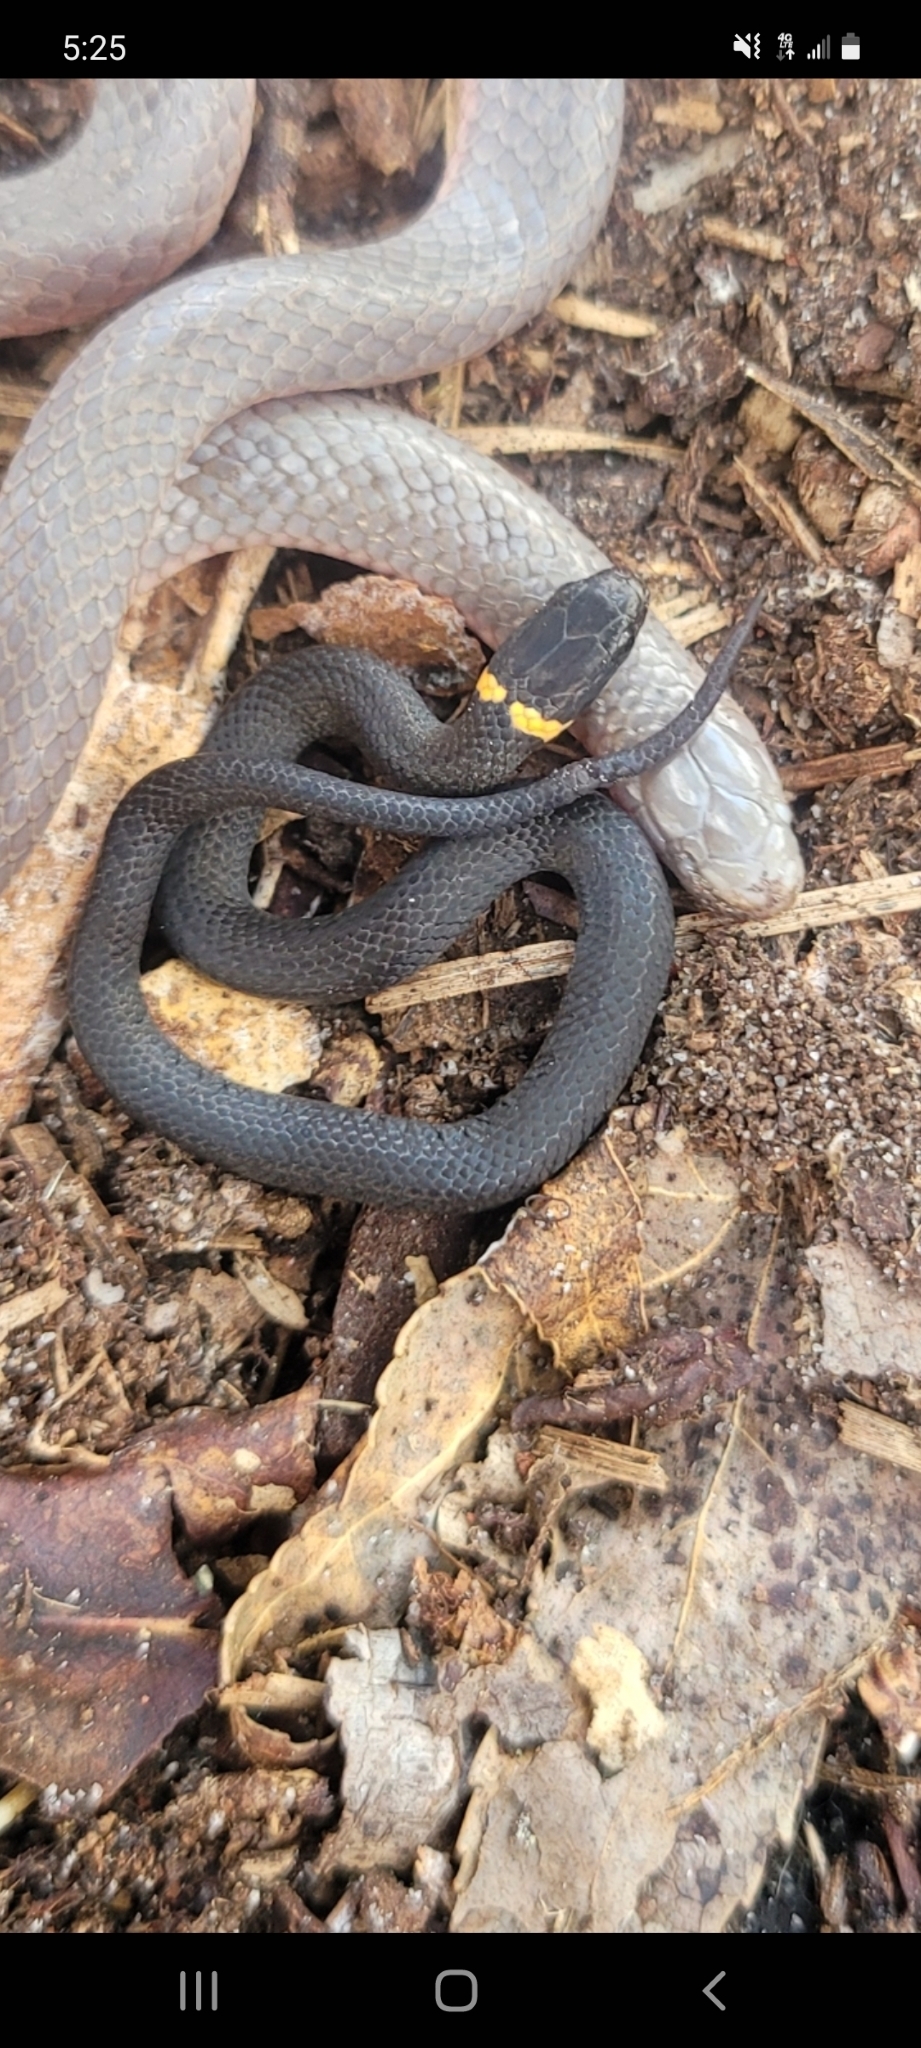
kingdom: Animalia
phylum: Chordata
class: Squamata
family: Colubridae
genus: Diadophis
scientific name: Diadophis punctatus
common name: Ringneck snake
